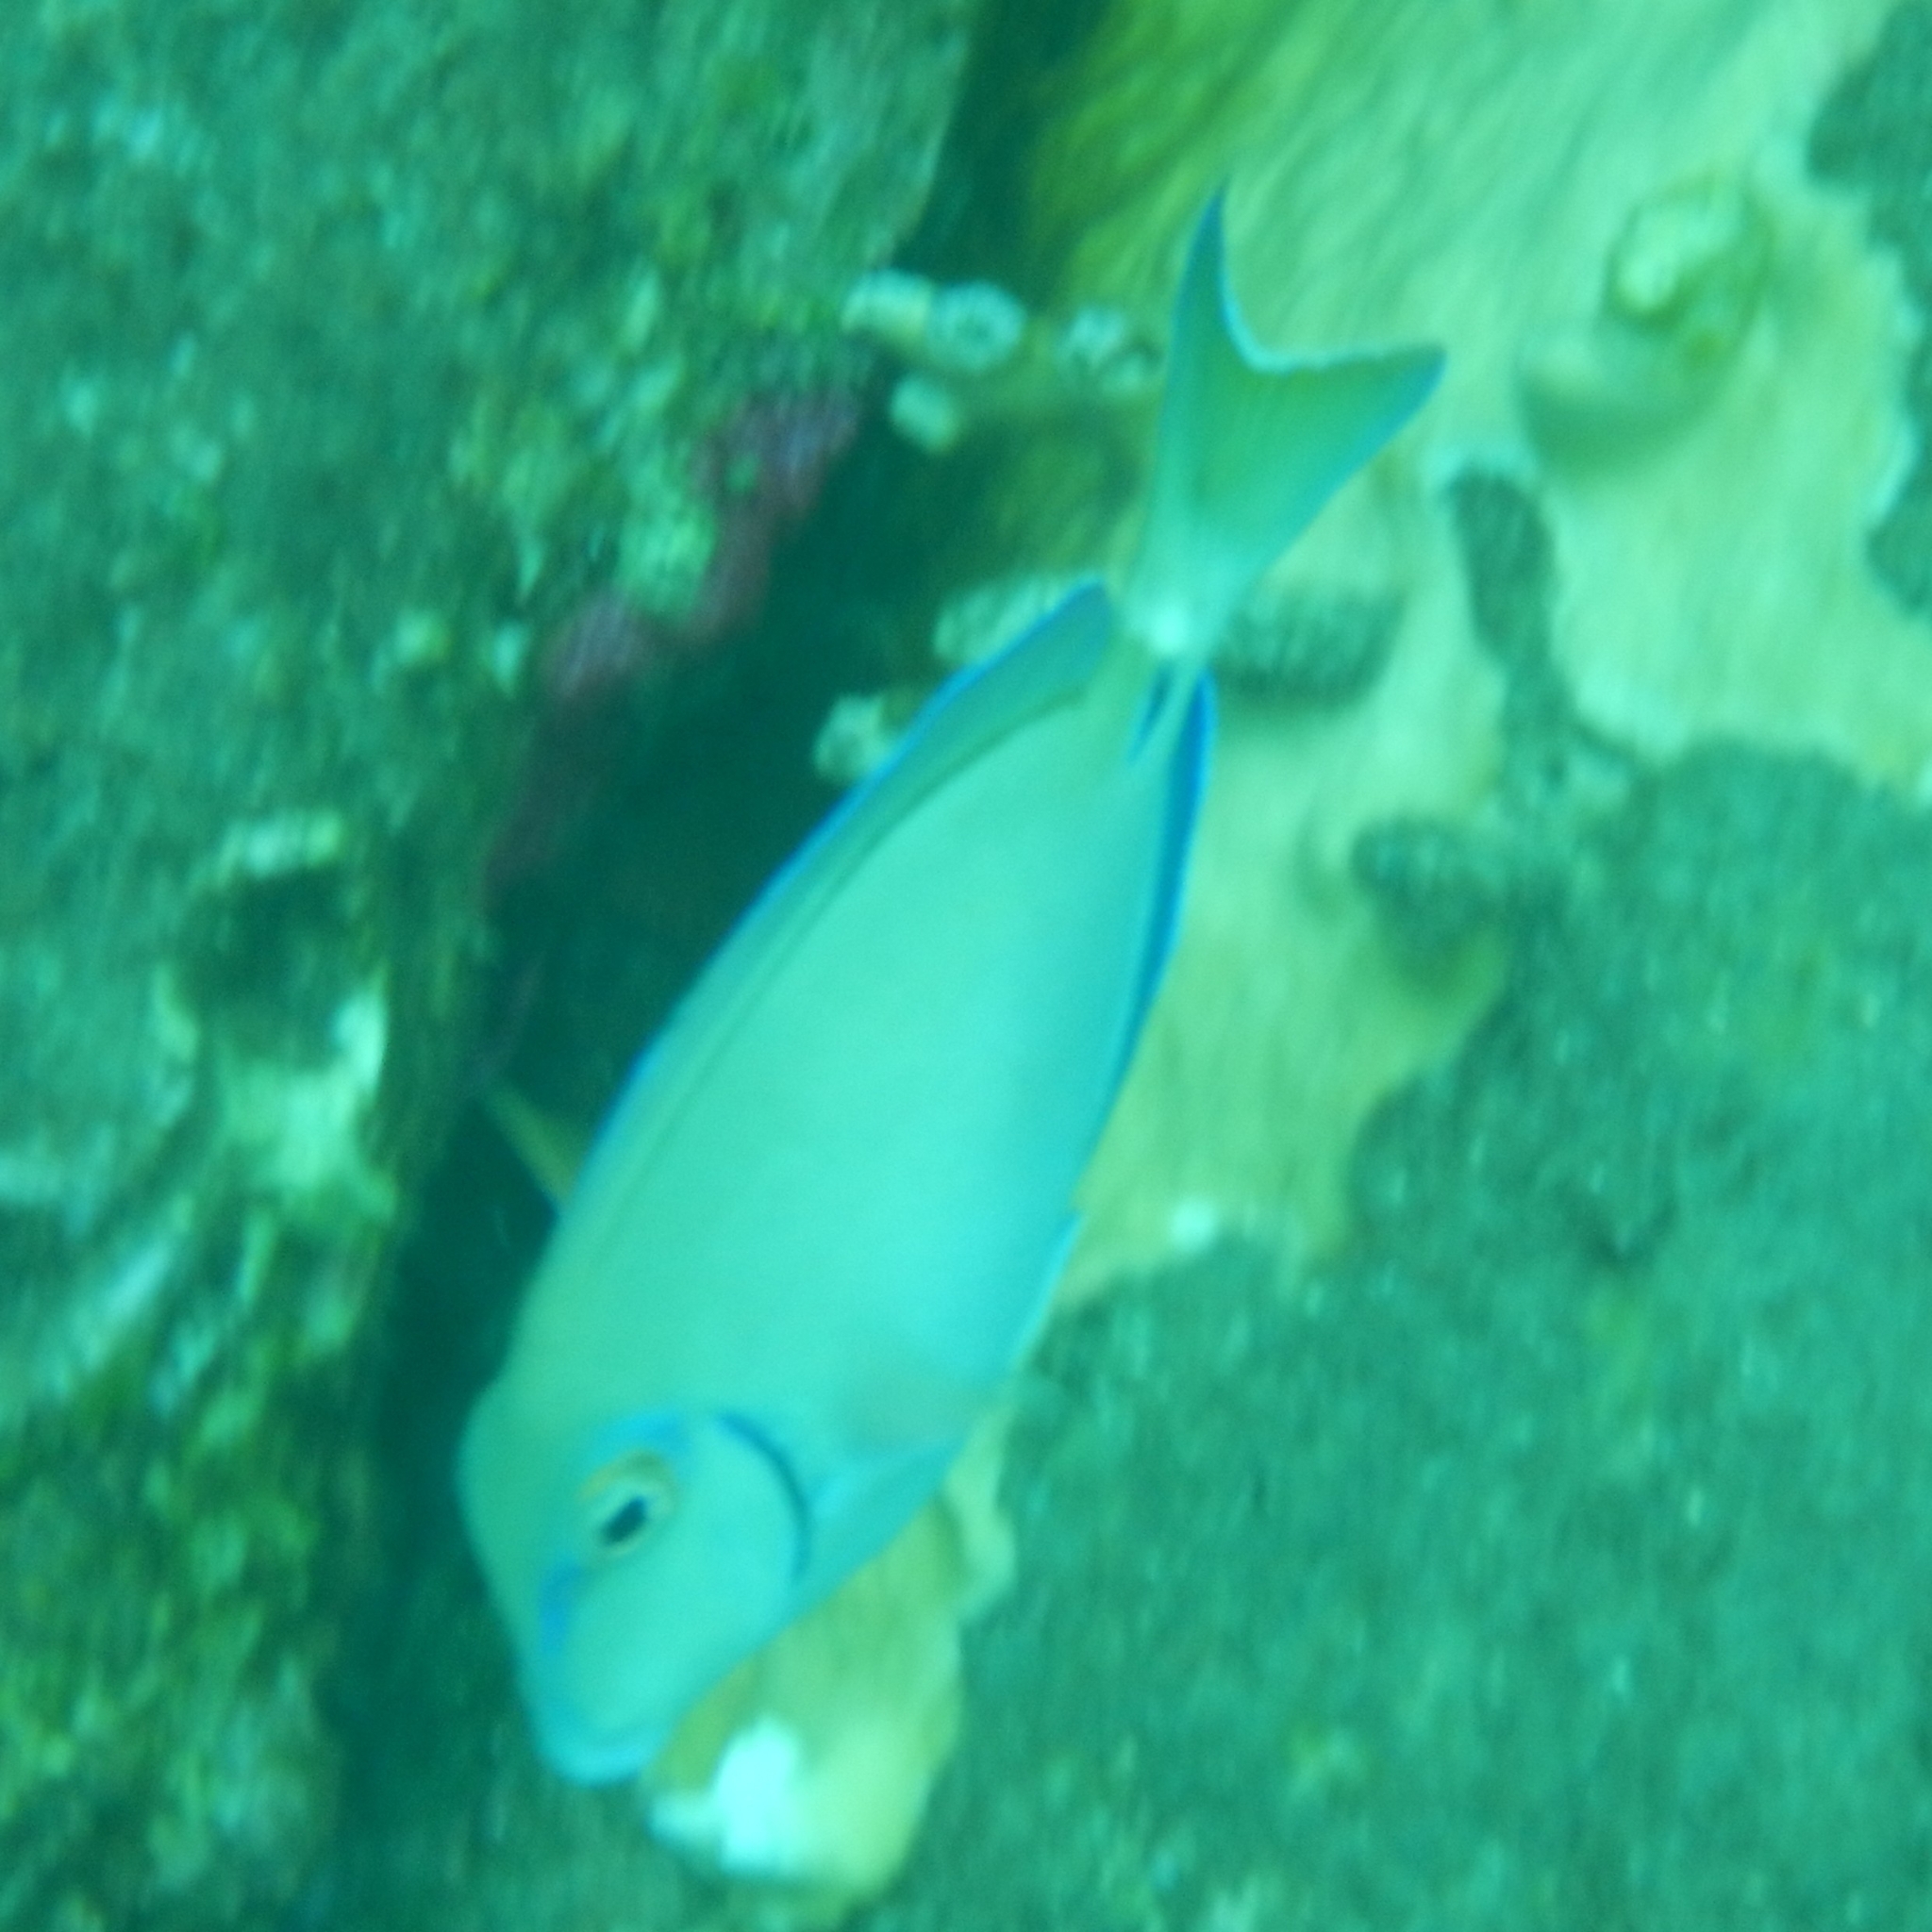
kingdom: Animalia
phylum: Chordata
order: Perciformes
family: Acanthuridae
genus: Acanthurus
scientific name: Acanthurus bahianus
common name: Ocean surgeon
